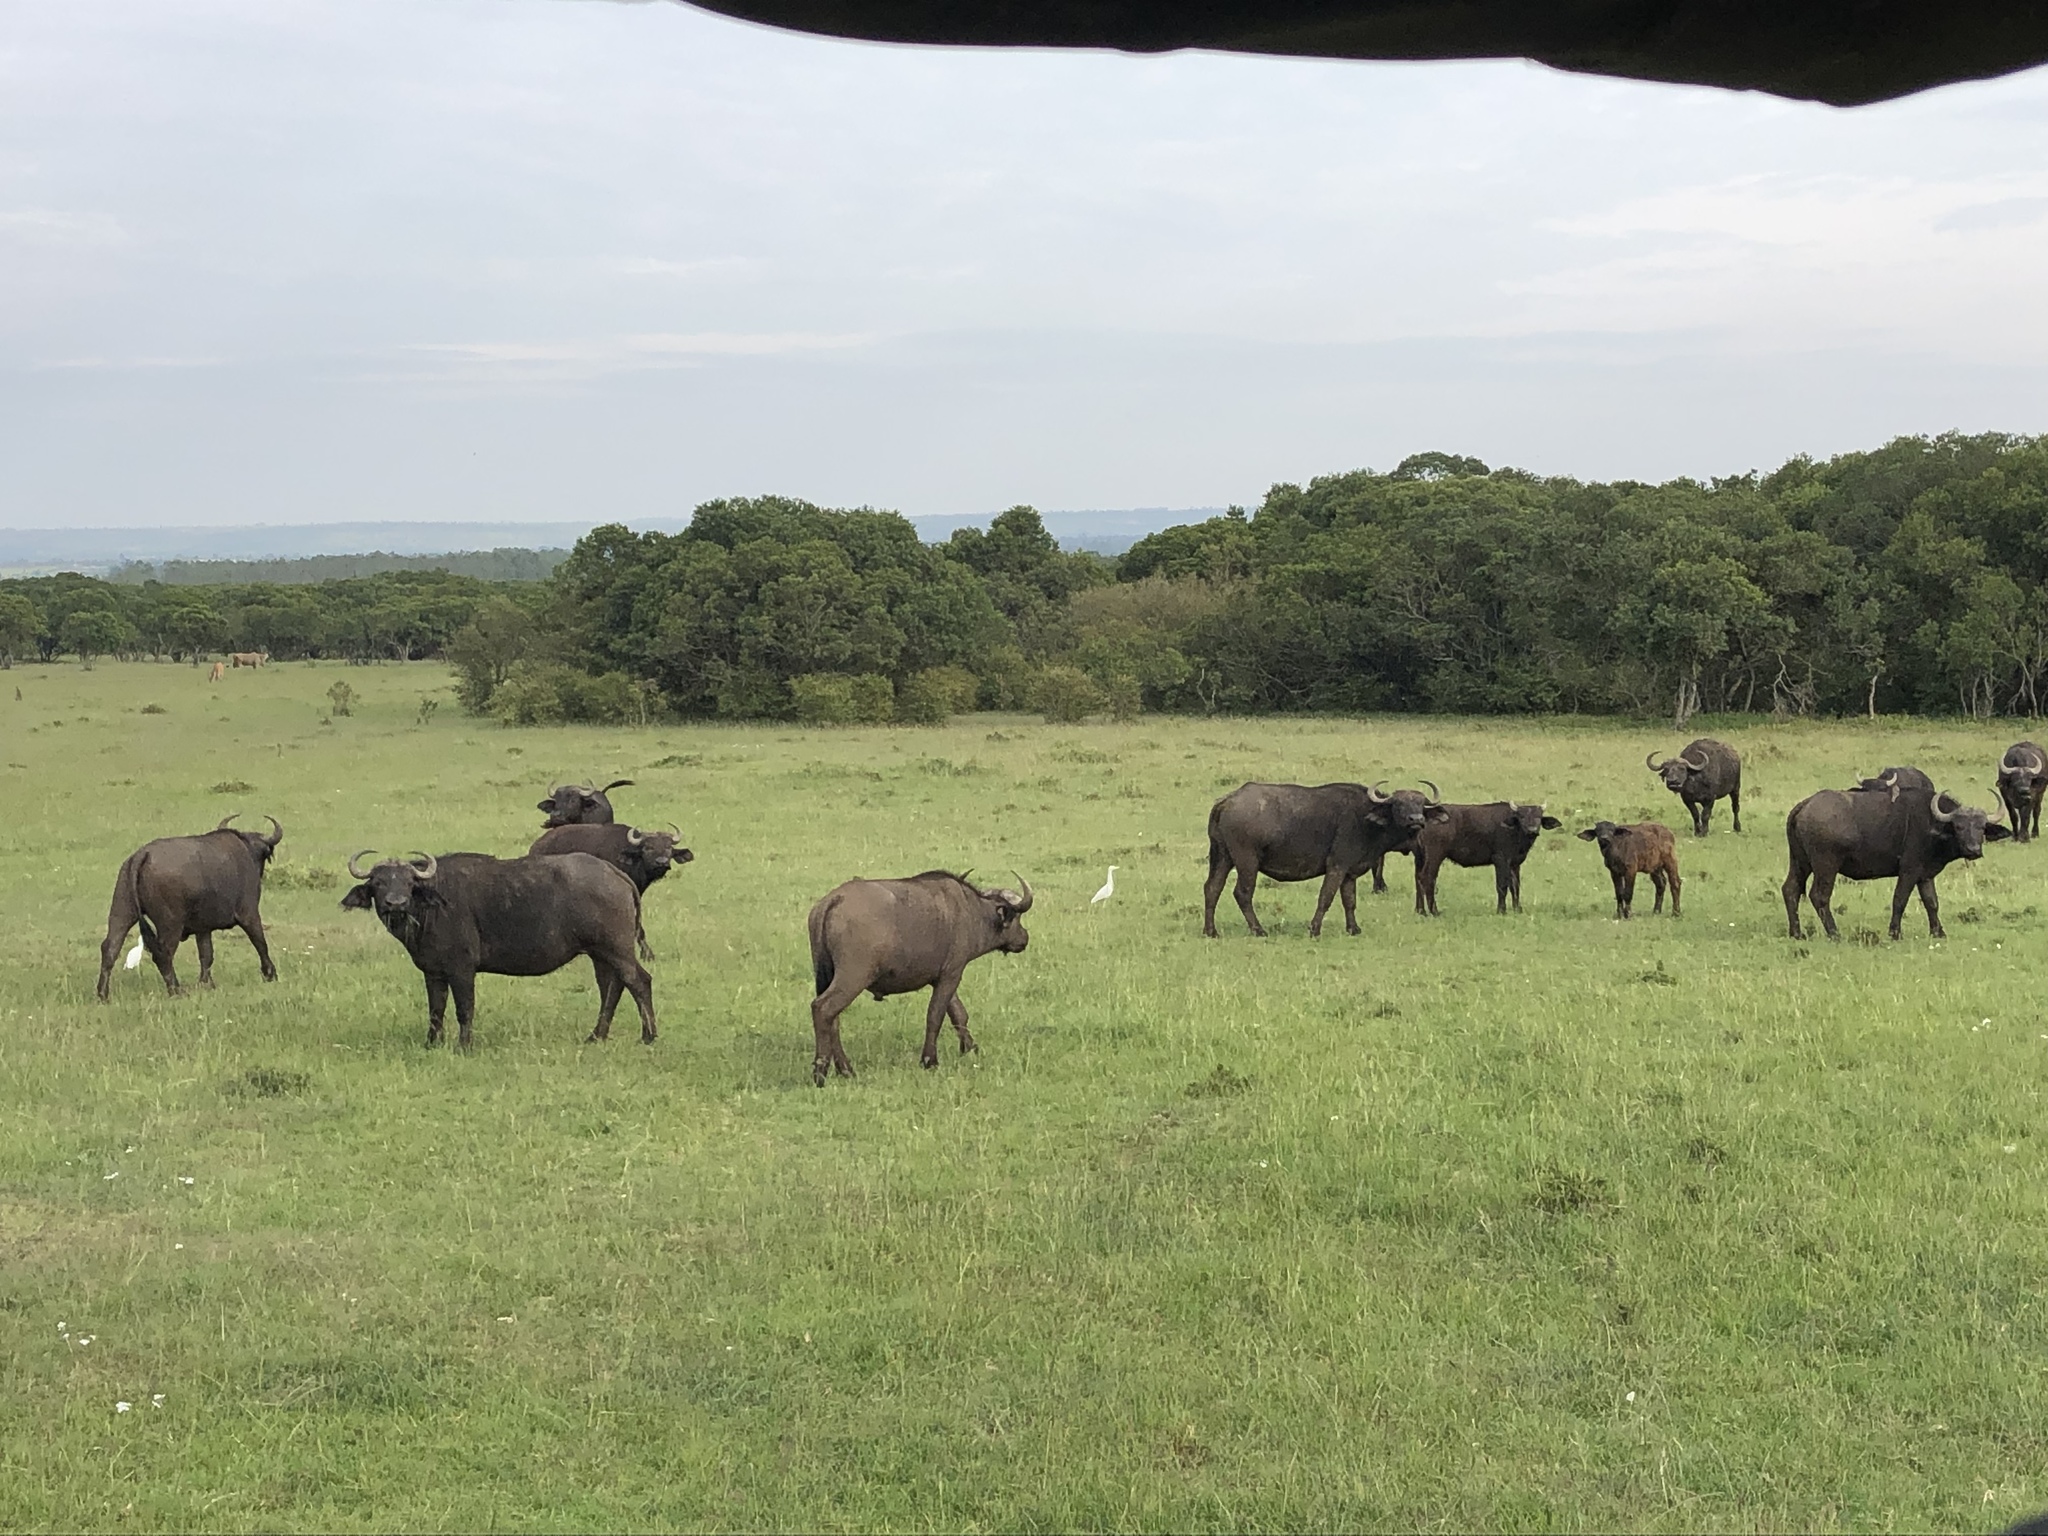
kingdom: Animalia
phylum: Chordata
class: Mammalia
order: Artiodactyla
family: Bovidae
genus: Syncerus
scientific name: Syncerus caffer
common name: African buffalo
